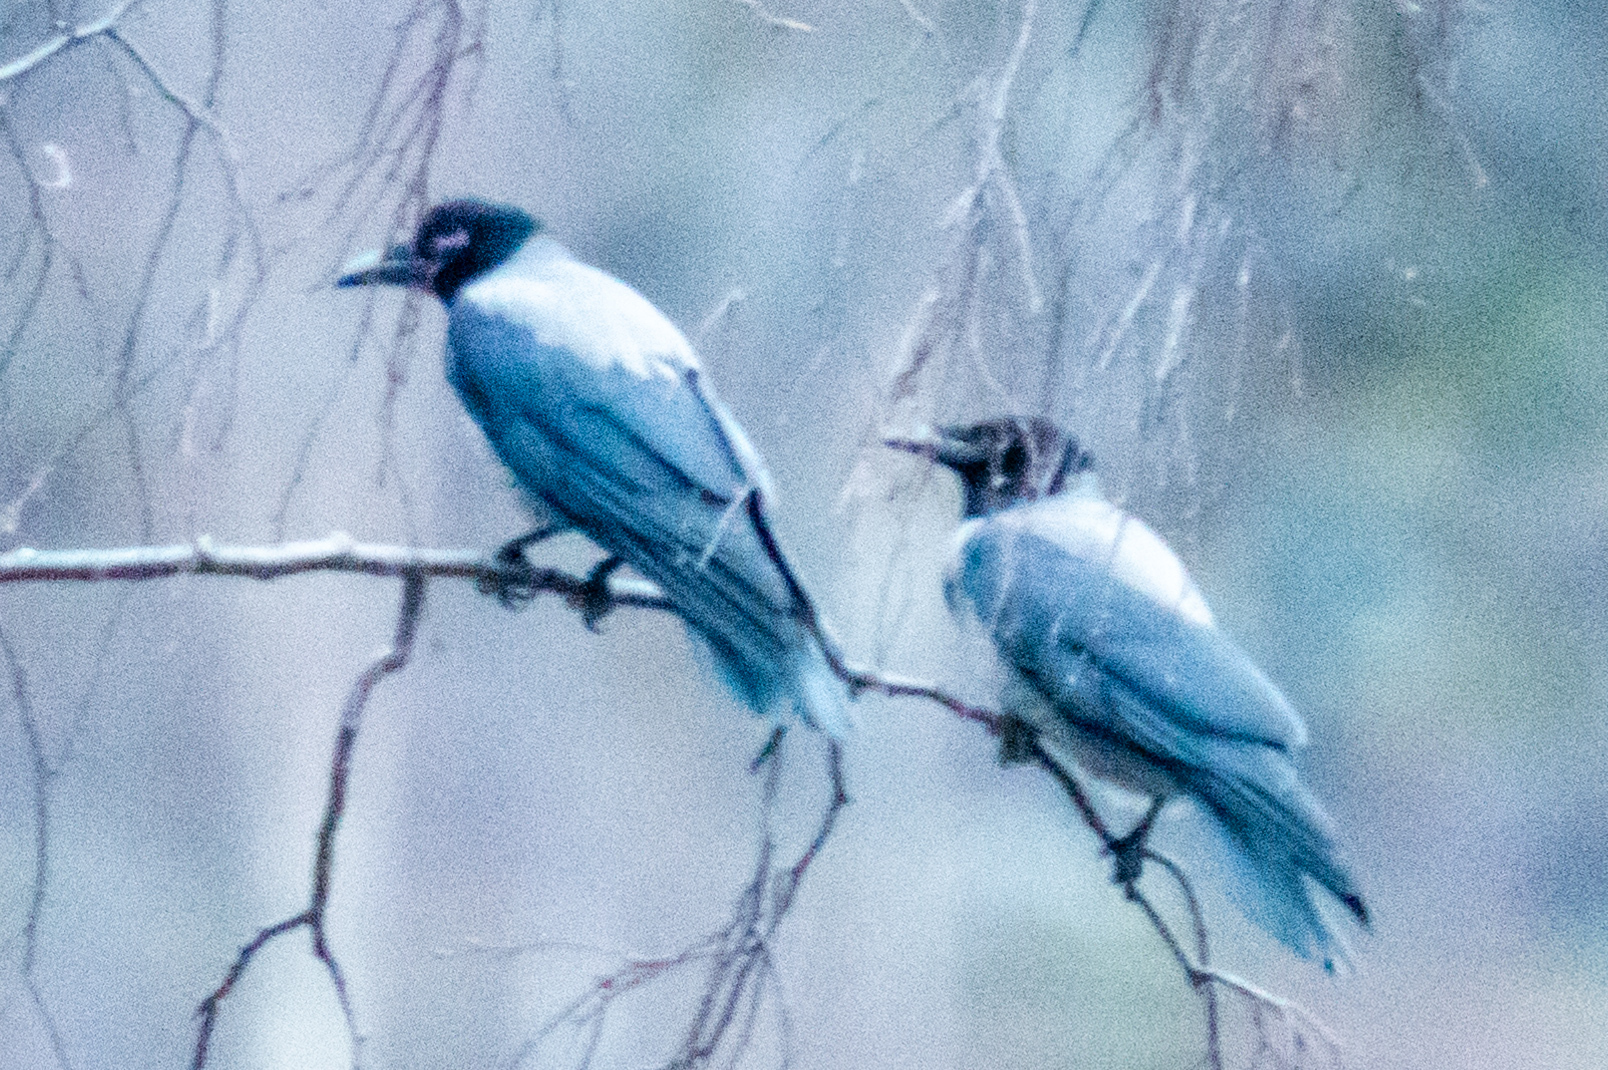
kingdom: Animalia
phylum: Chordata
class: Aves
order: Passeriformes
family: Corvidae
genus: Corvus
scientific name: Corvus cornix
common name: Hooded crow
